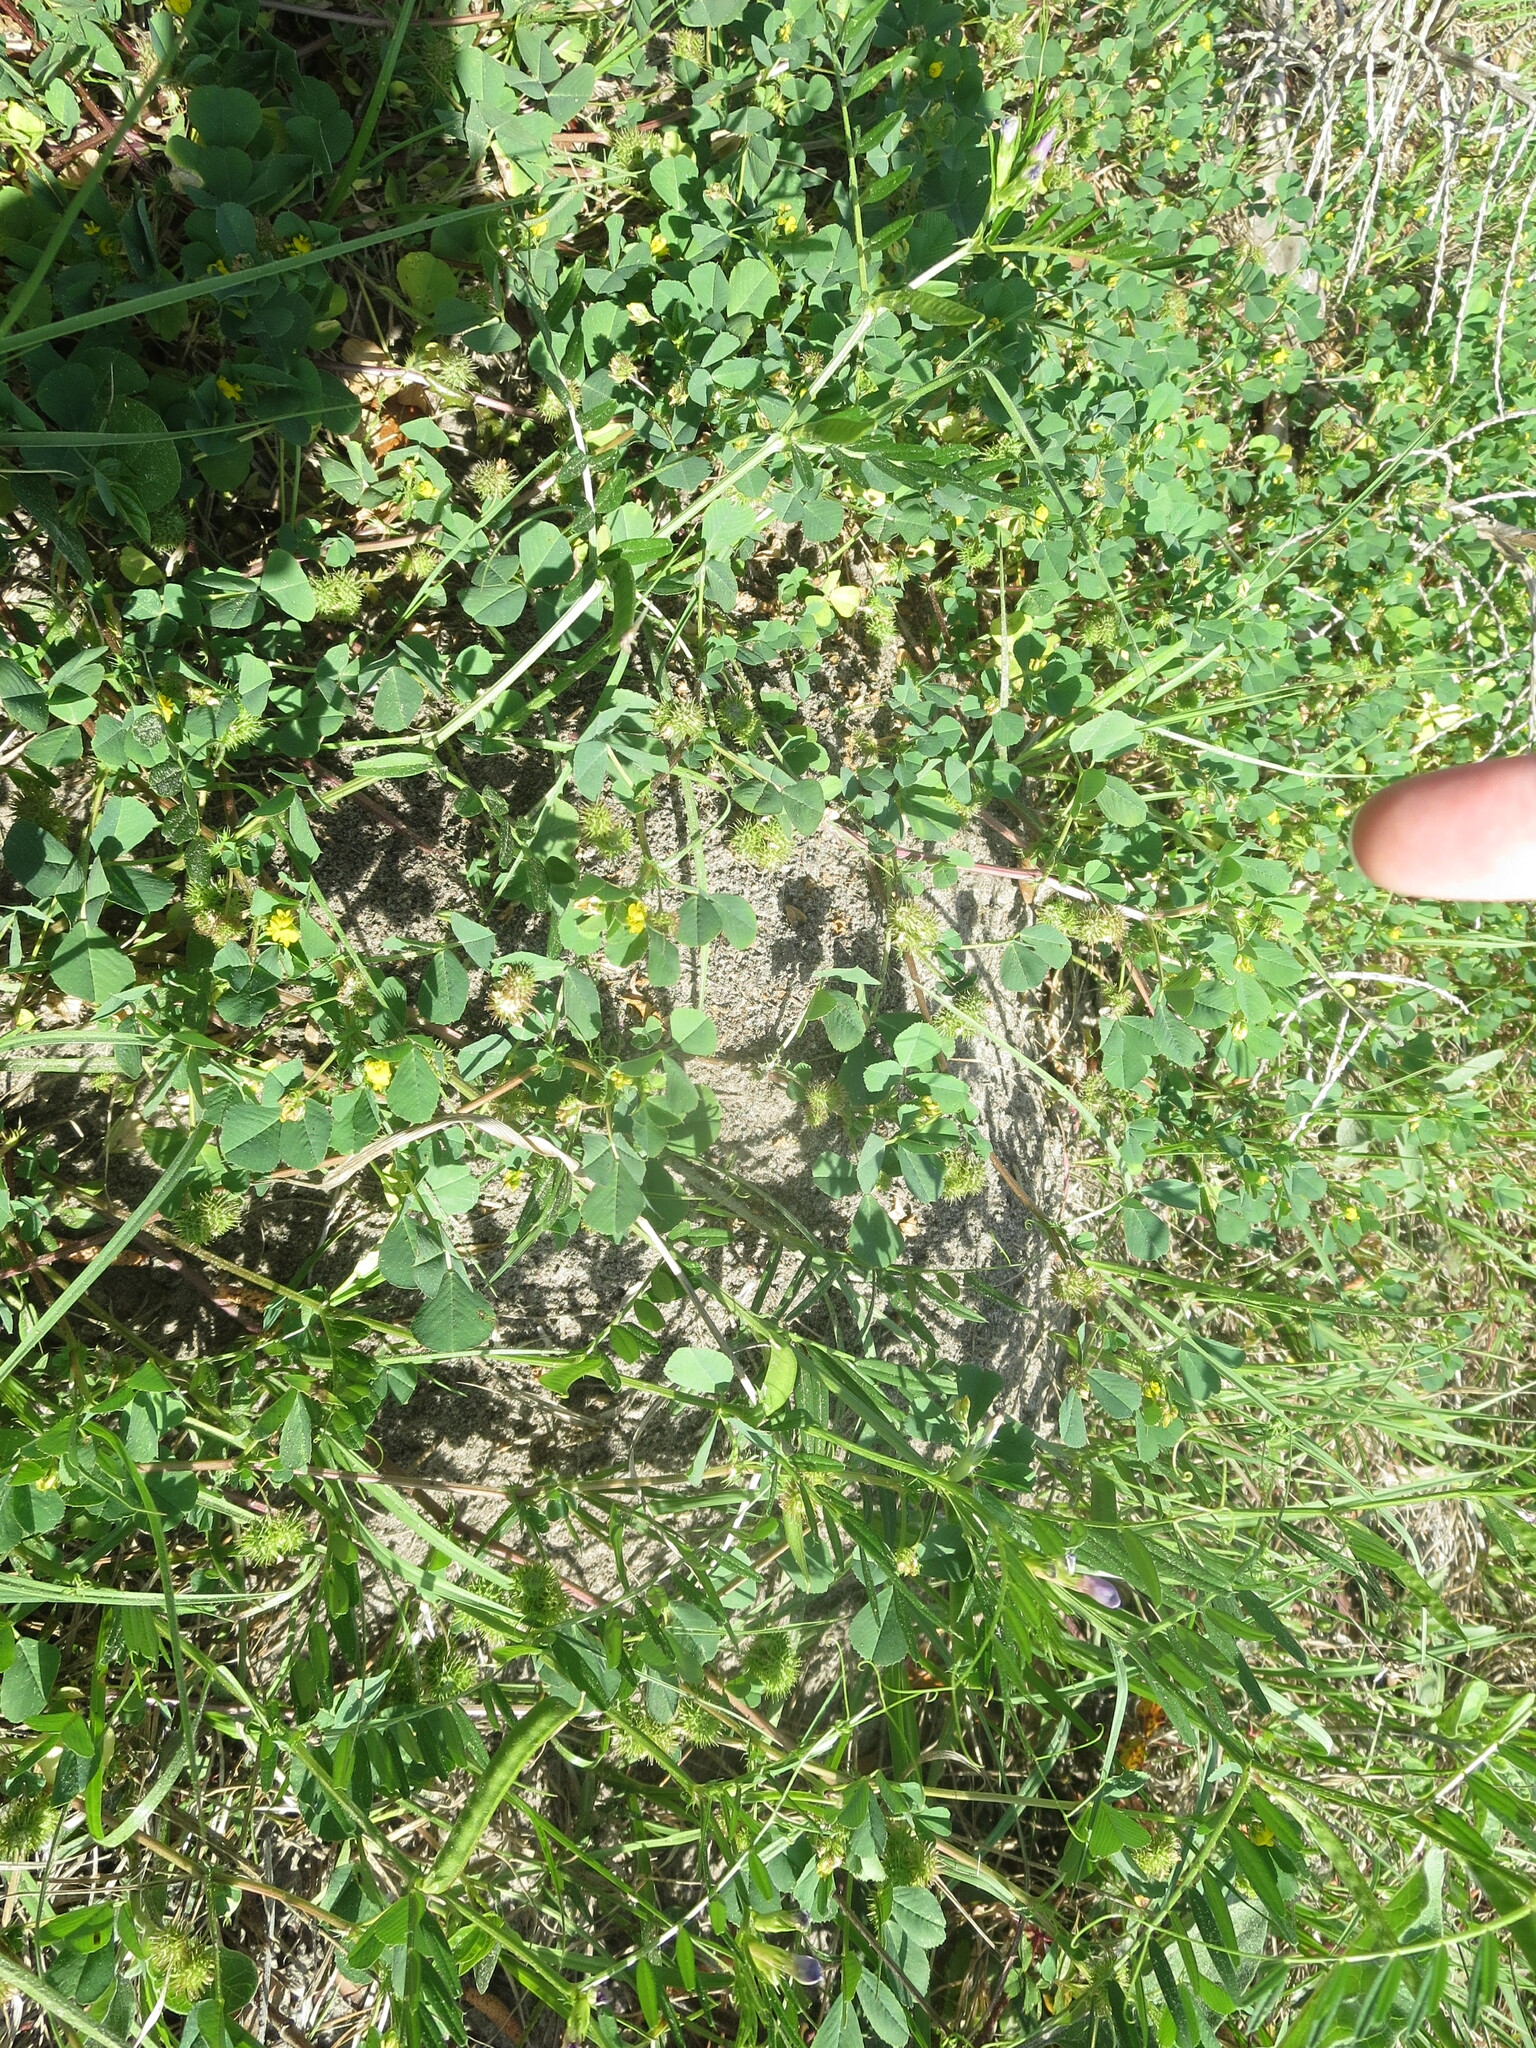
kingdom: Animalia
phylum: Arthropoda
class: Insecta
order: Hymenoptera
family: Formicidae
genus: Solenopsis
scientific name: Solenopsis invicta
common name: Red imported fire ant
